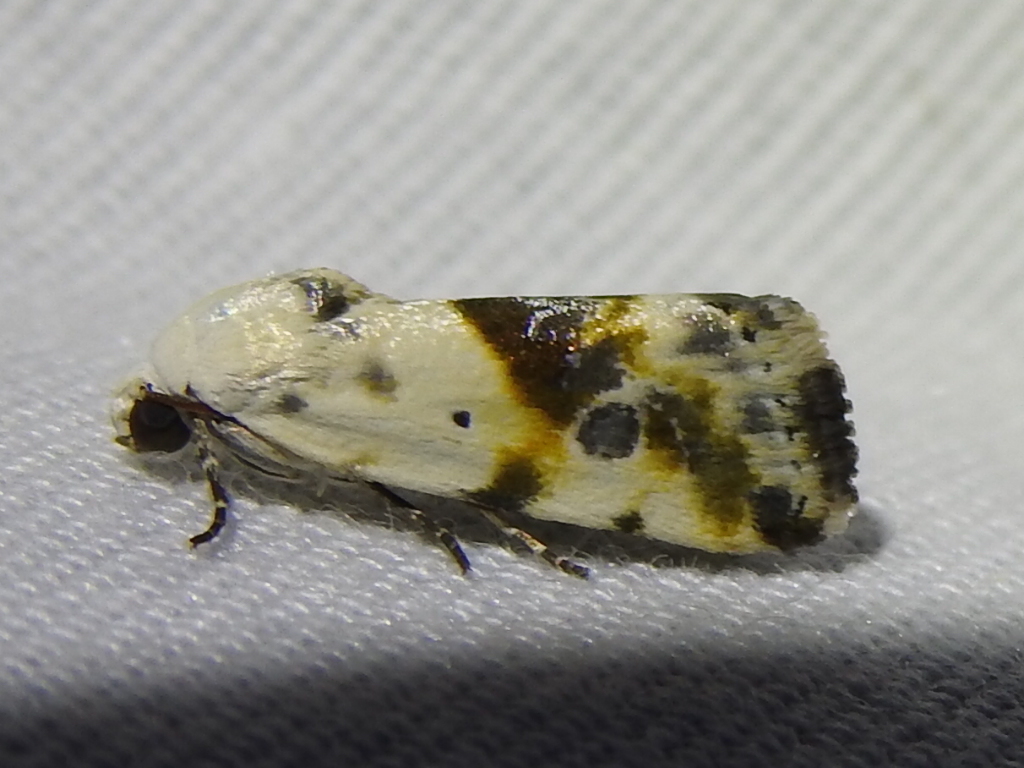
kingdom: Animalia
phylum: Arthropoda
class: Insecta
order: Lepidoptera
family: Noctuidae
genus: Acontia
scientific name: Acontia candefacta
